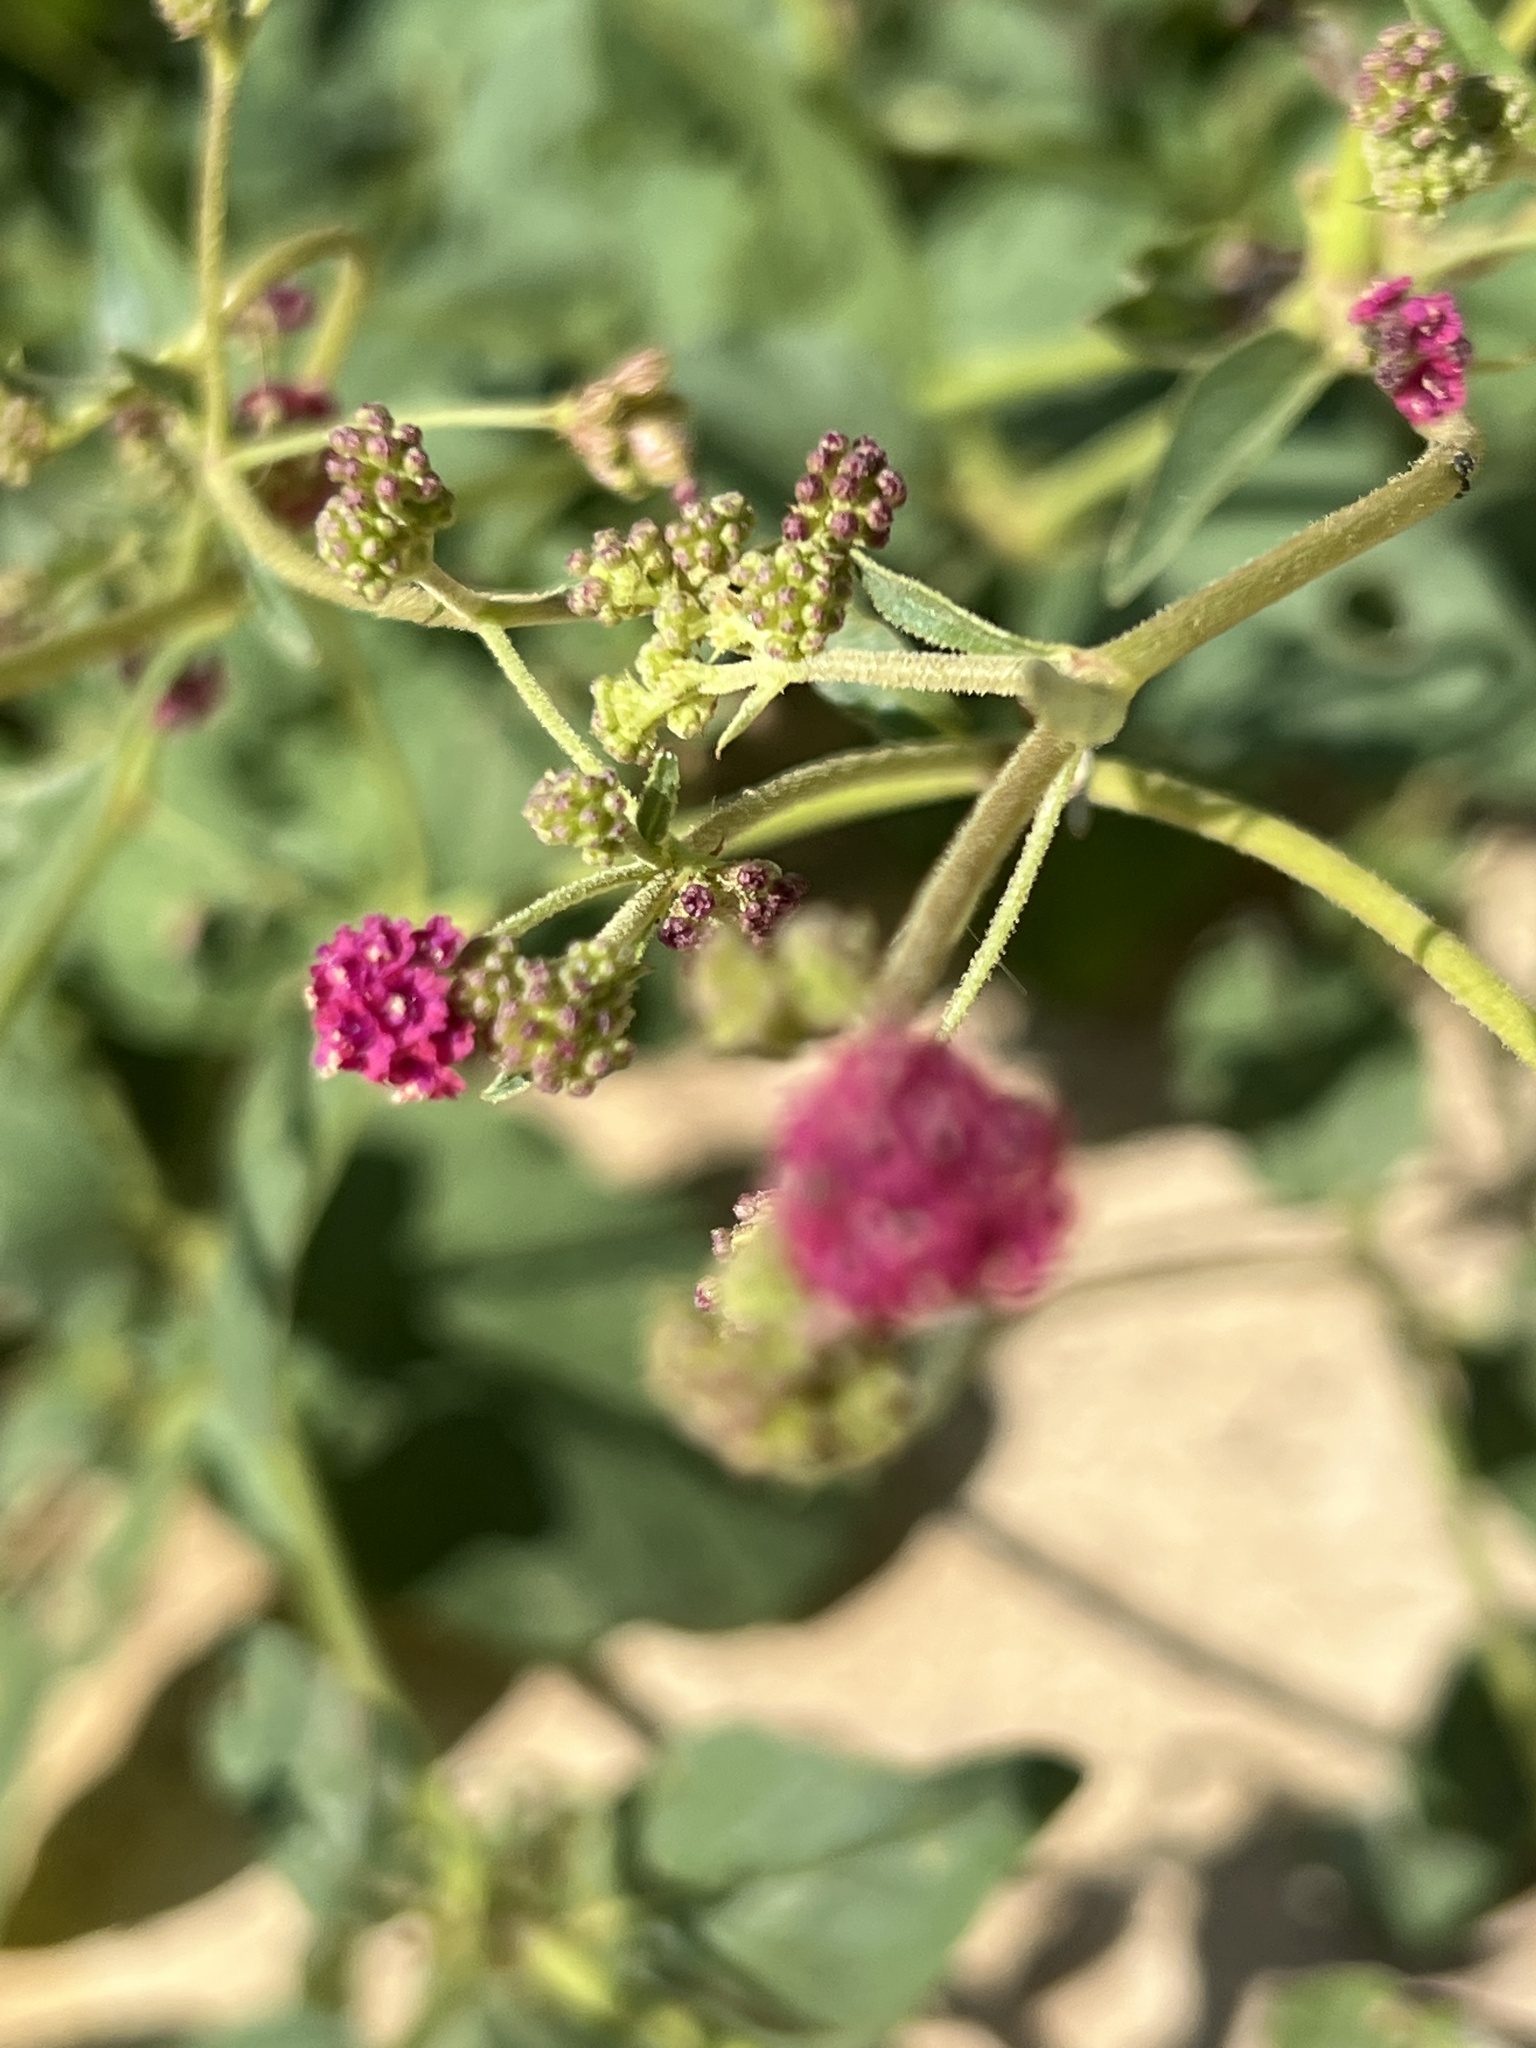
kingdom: Plantae
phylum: Tracheophyta
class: Magnoliopsida
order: Caryophyllales
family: Nyctaginaceae
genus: Boerhavia
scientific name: Boerhavia coccinea
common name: Scarlet spiderling
